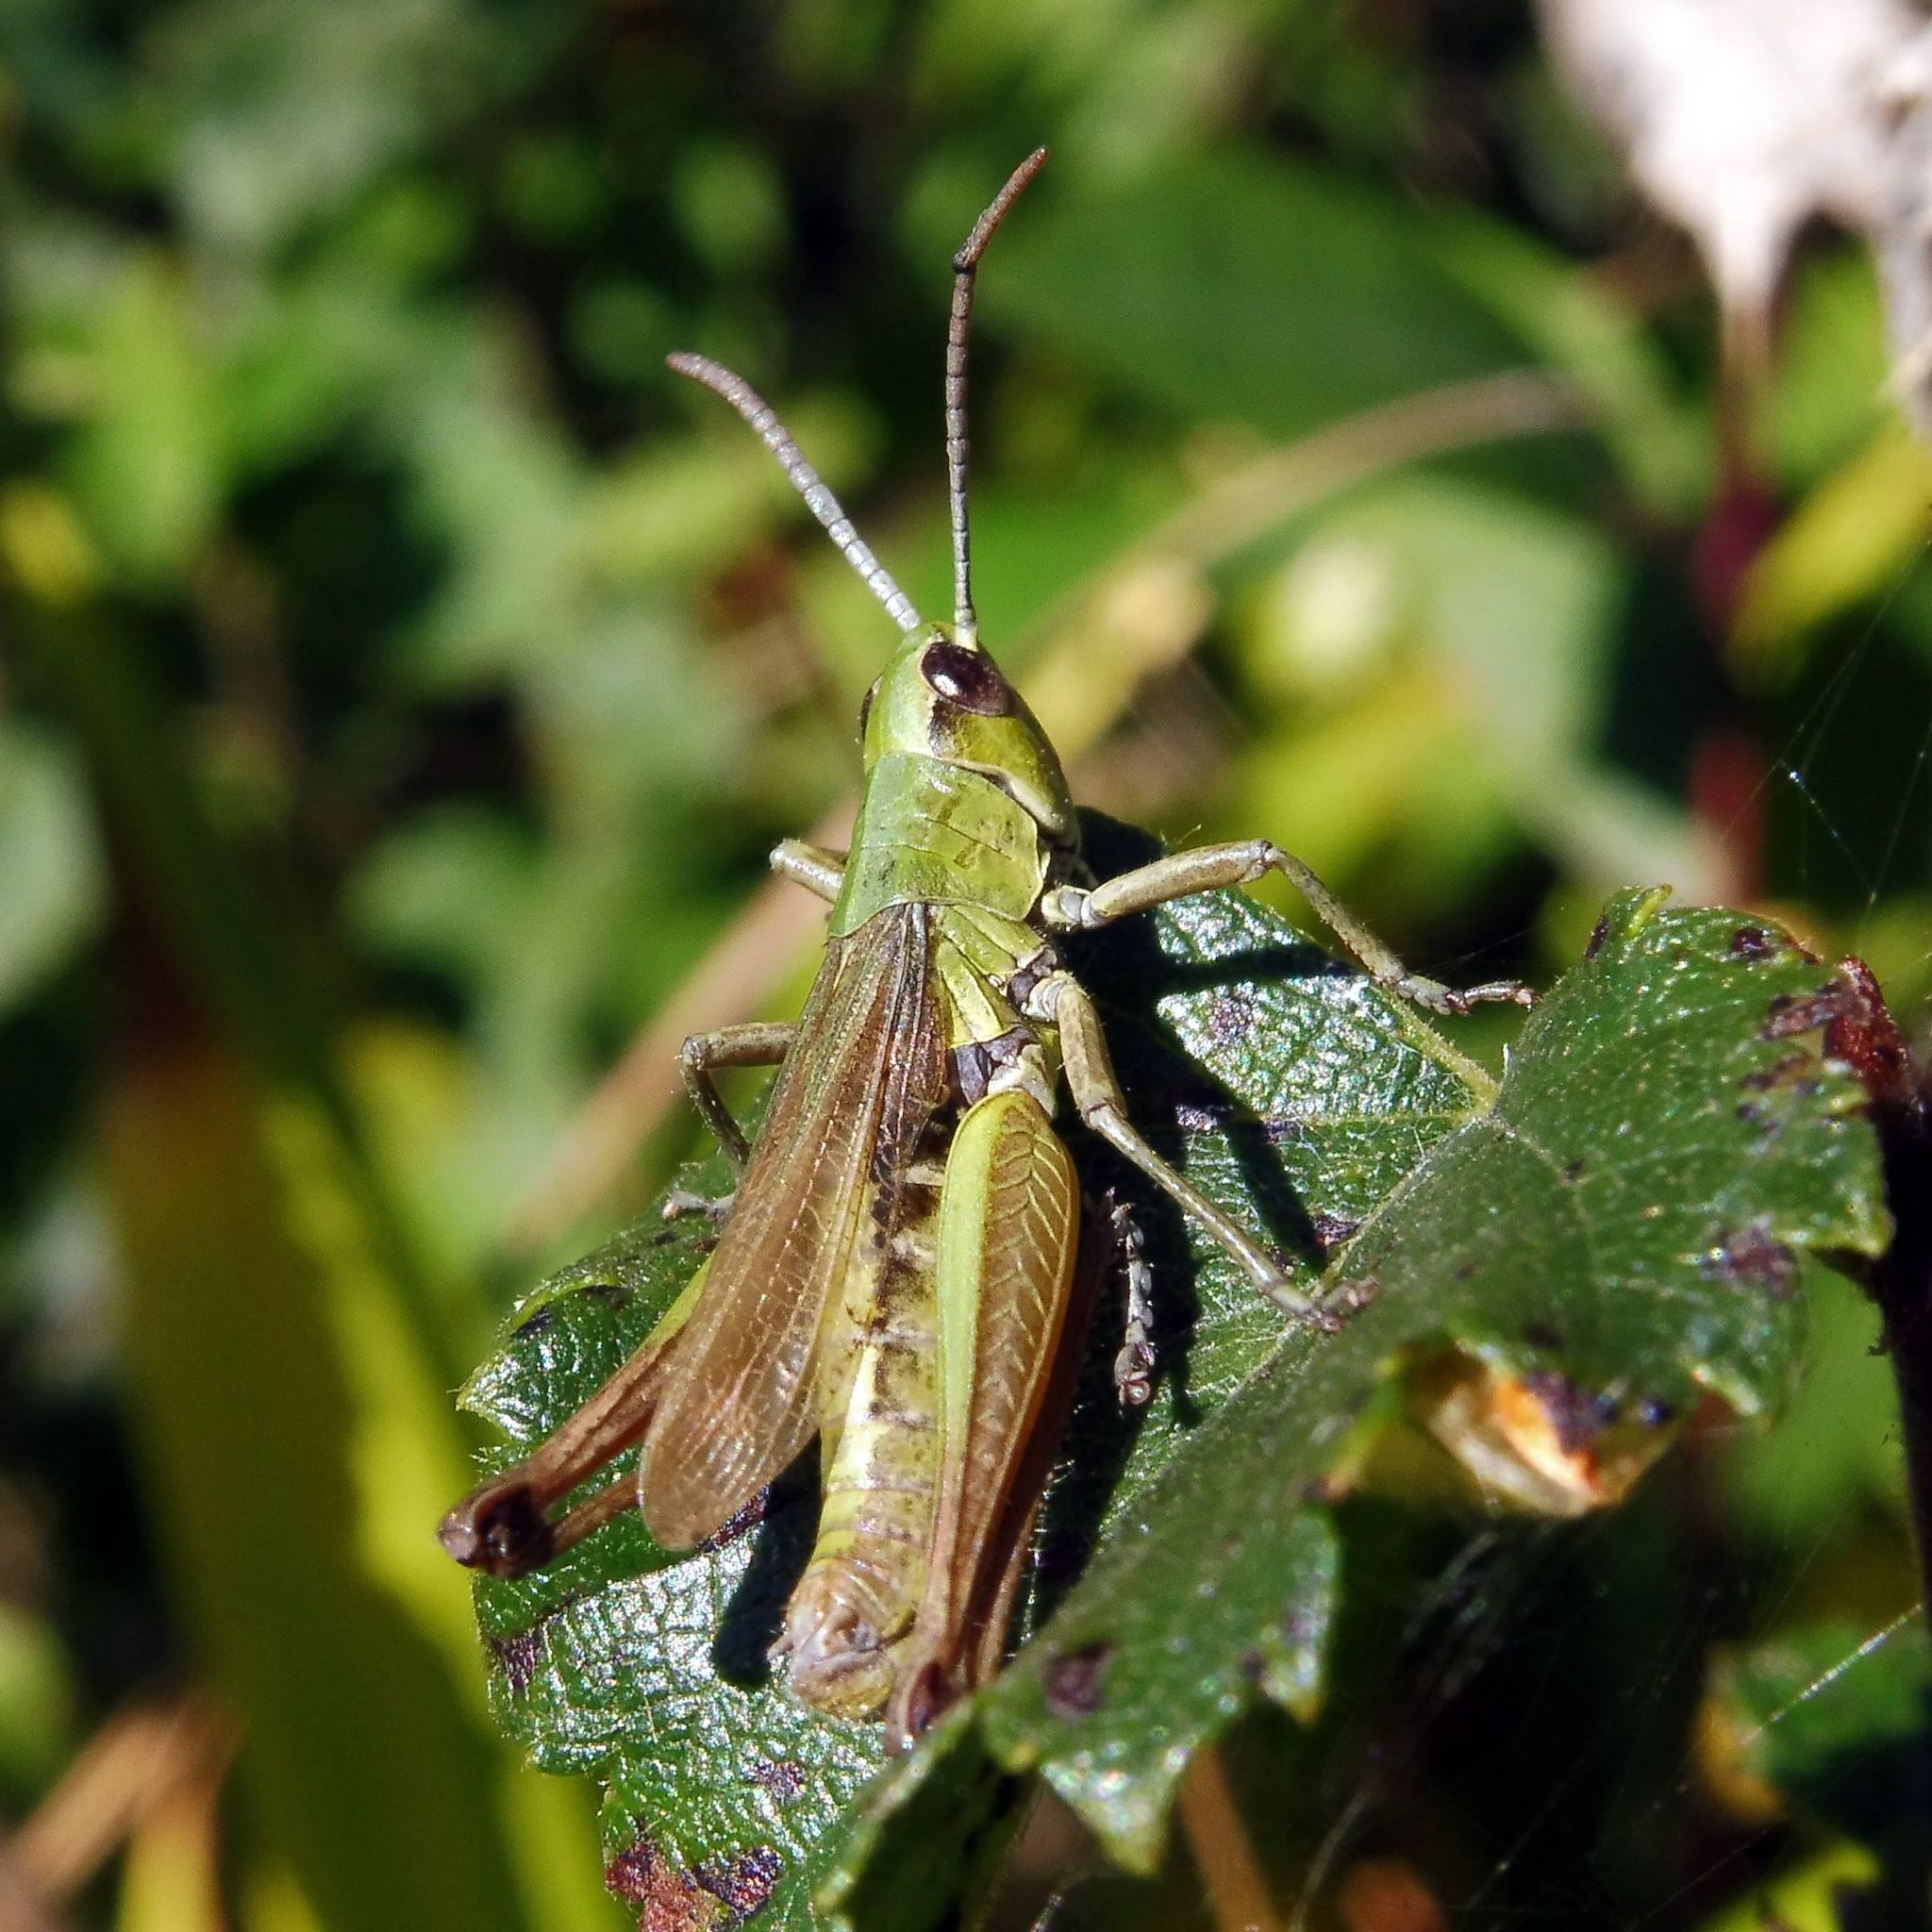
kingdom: Animalia
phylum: Arthropoda
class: Insecta
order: Orthoptera
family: Acrididae
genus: Pseudochorthippus
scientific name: Pseudochorthippus parallelus
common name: Meadow grasshopper
